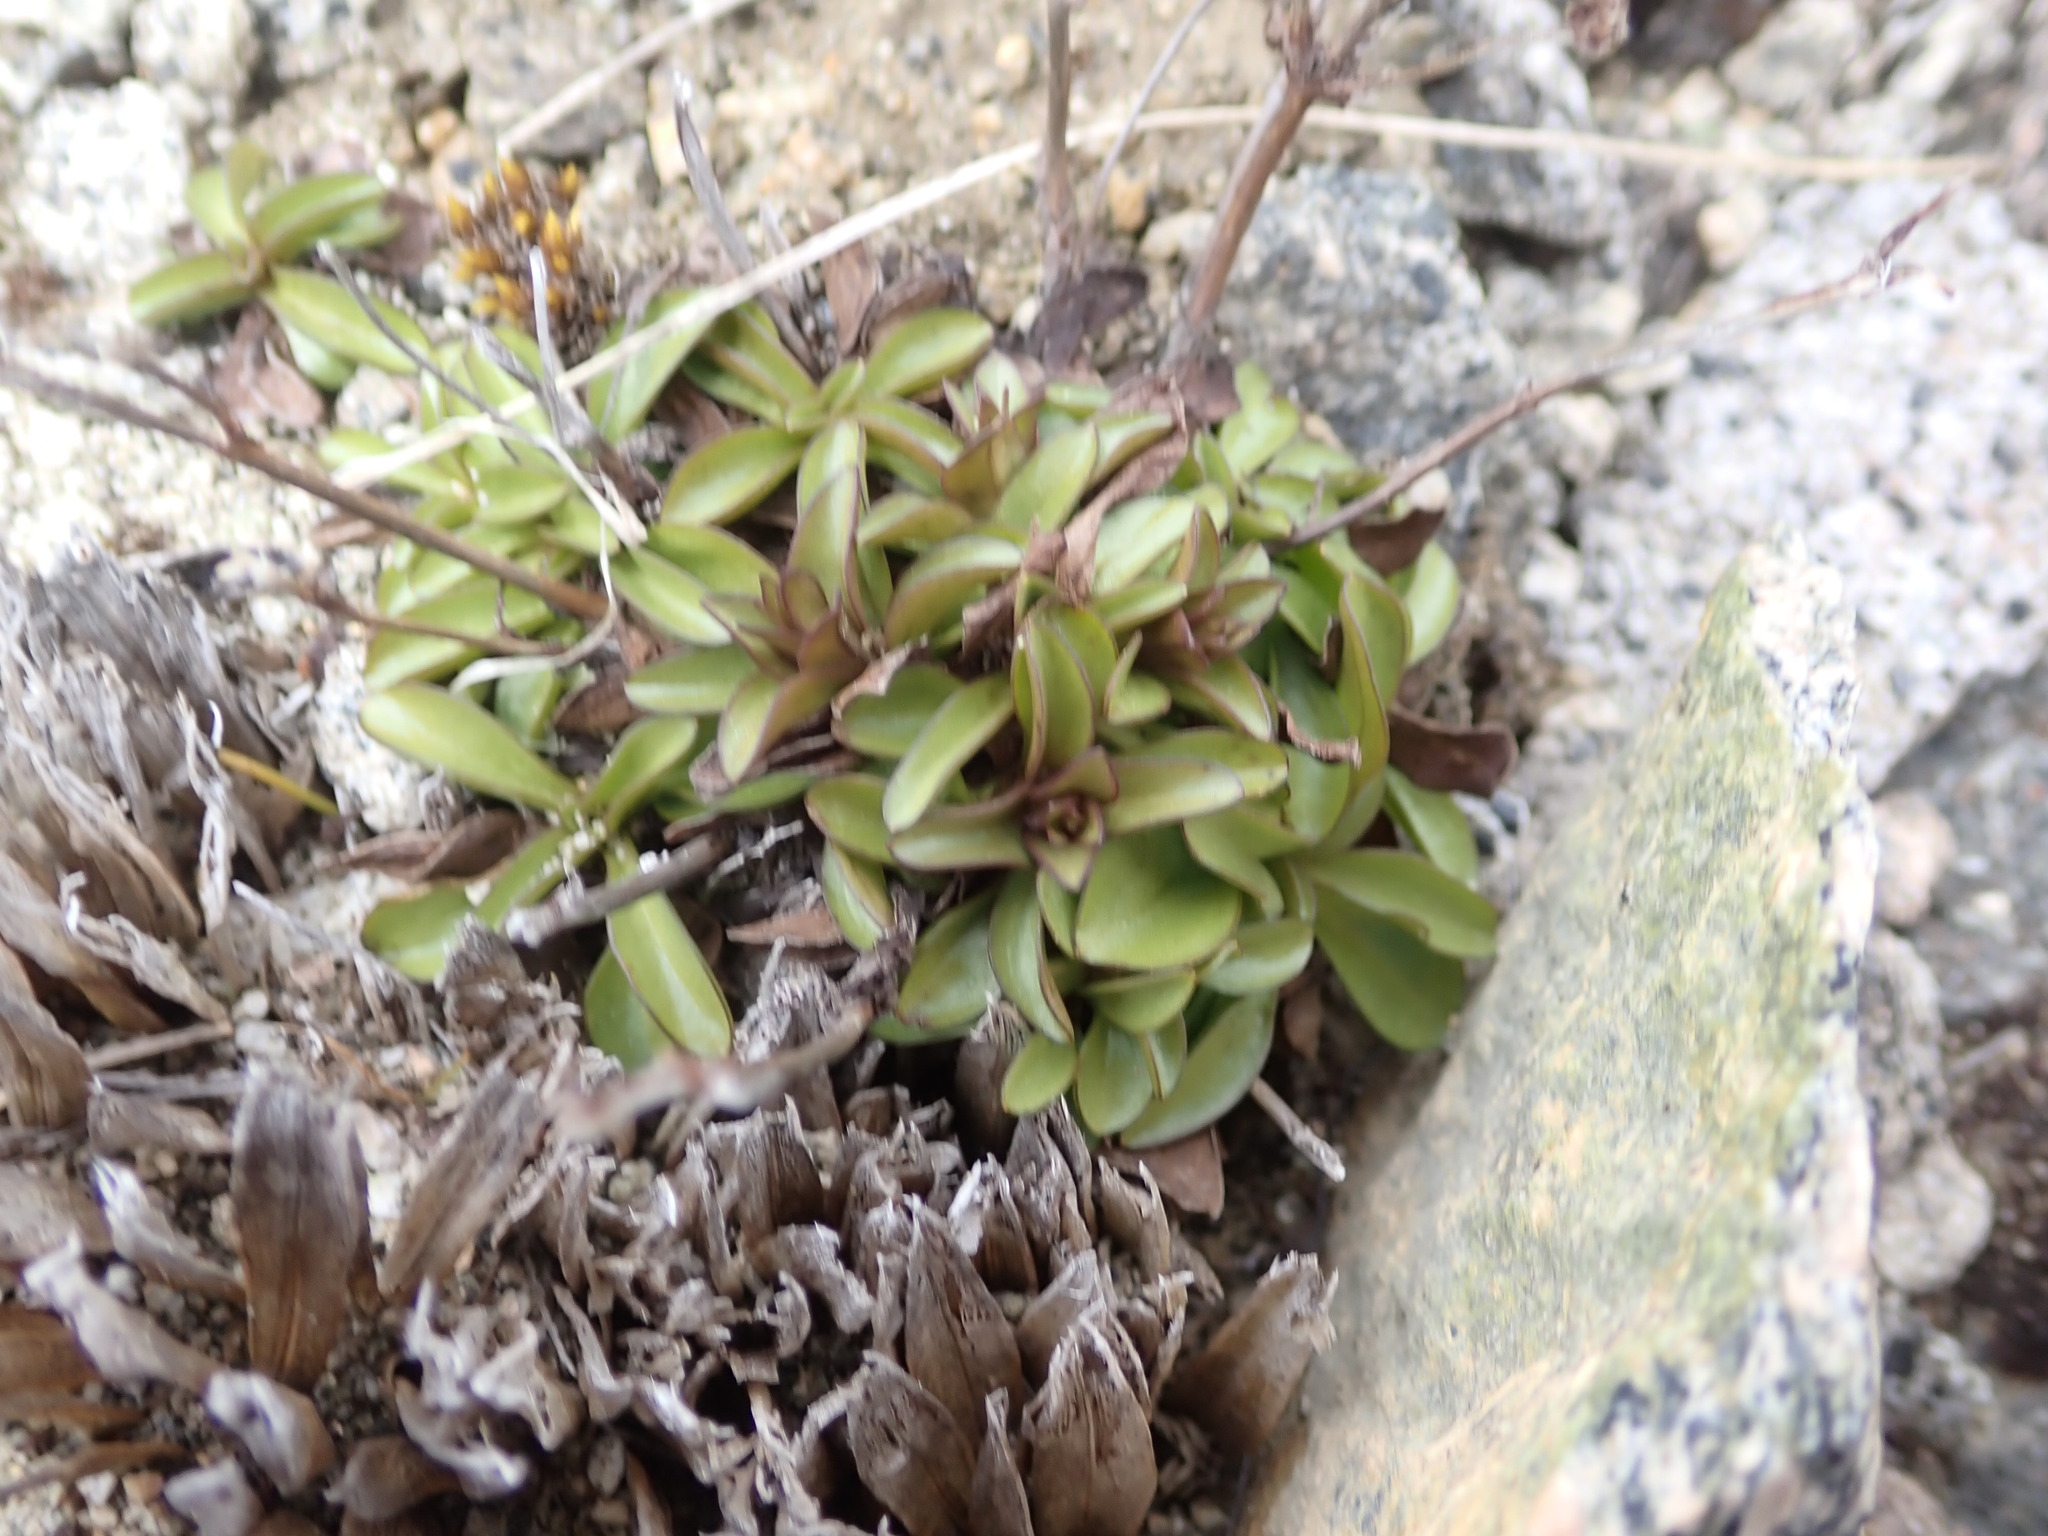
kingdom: Plantae
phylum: Tracheophyta
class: Magnoliopsida
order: Gentianales
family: Gentianaceae
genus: Gentianella
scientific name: Gentianella bellidifolia
